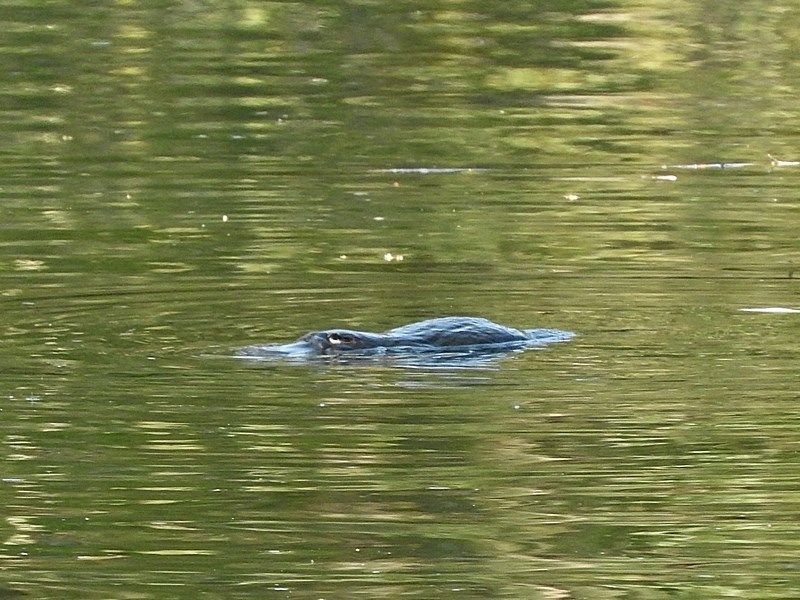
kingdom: Animalia
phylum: Chordata
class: Mammalia
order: Monotremata
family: Ornithorhynchidae
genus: Ornithorhynchus
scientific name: Ornithorhynchus anatinus
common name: Platypus
